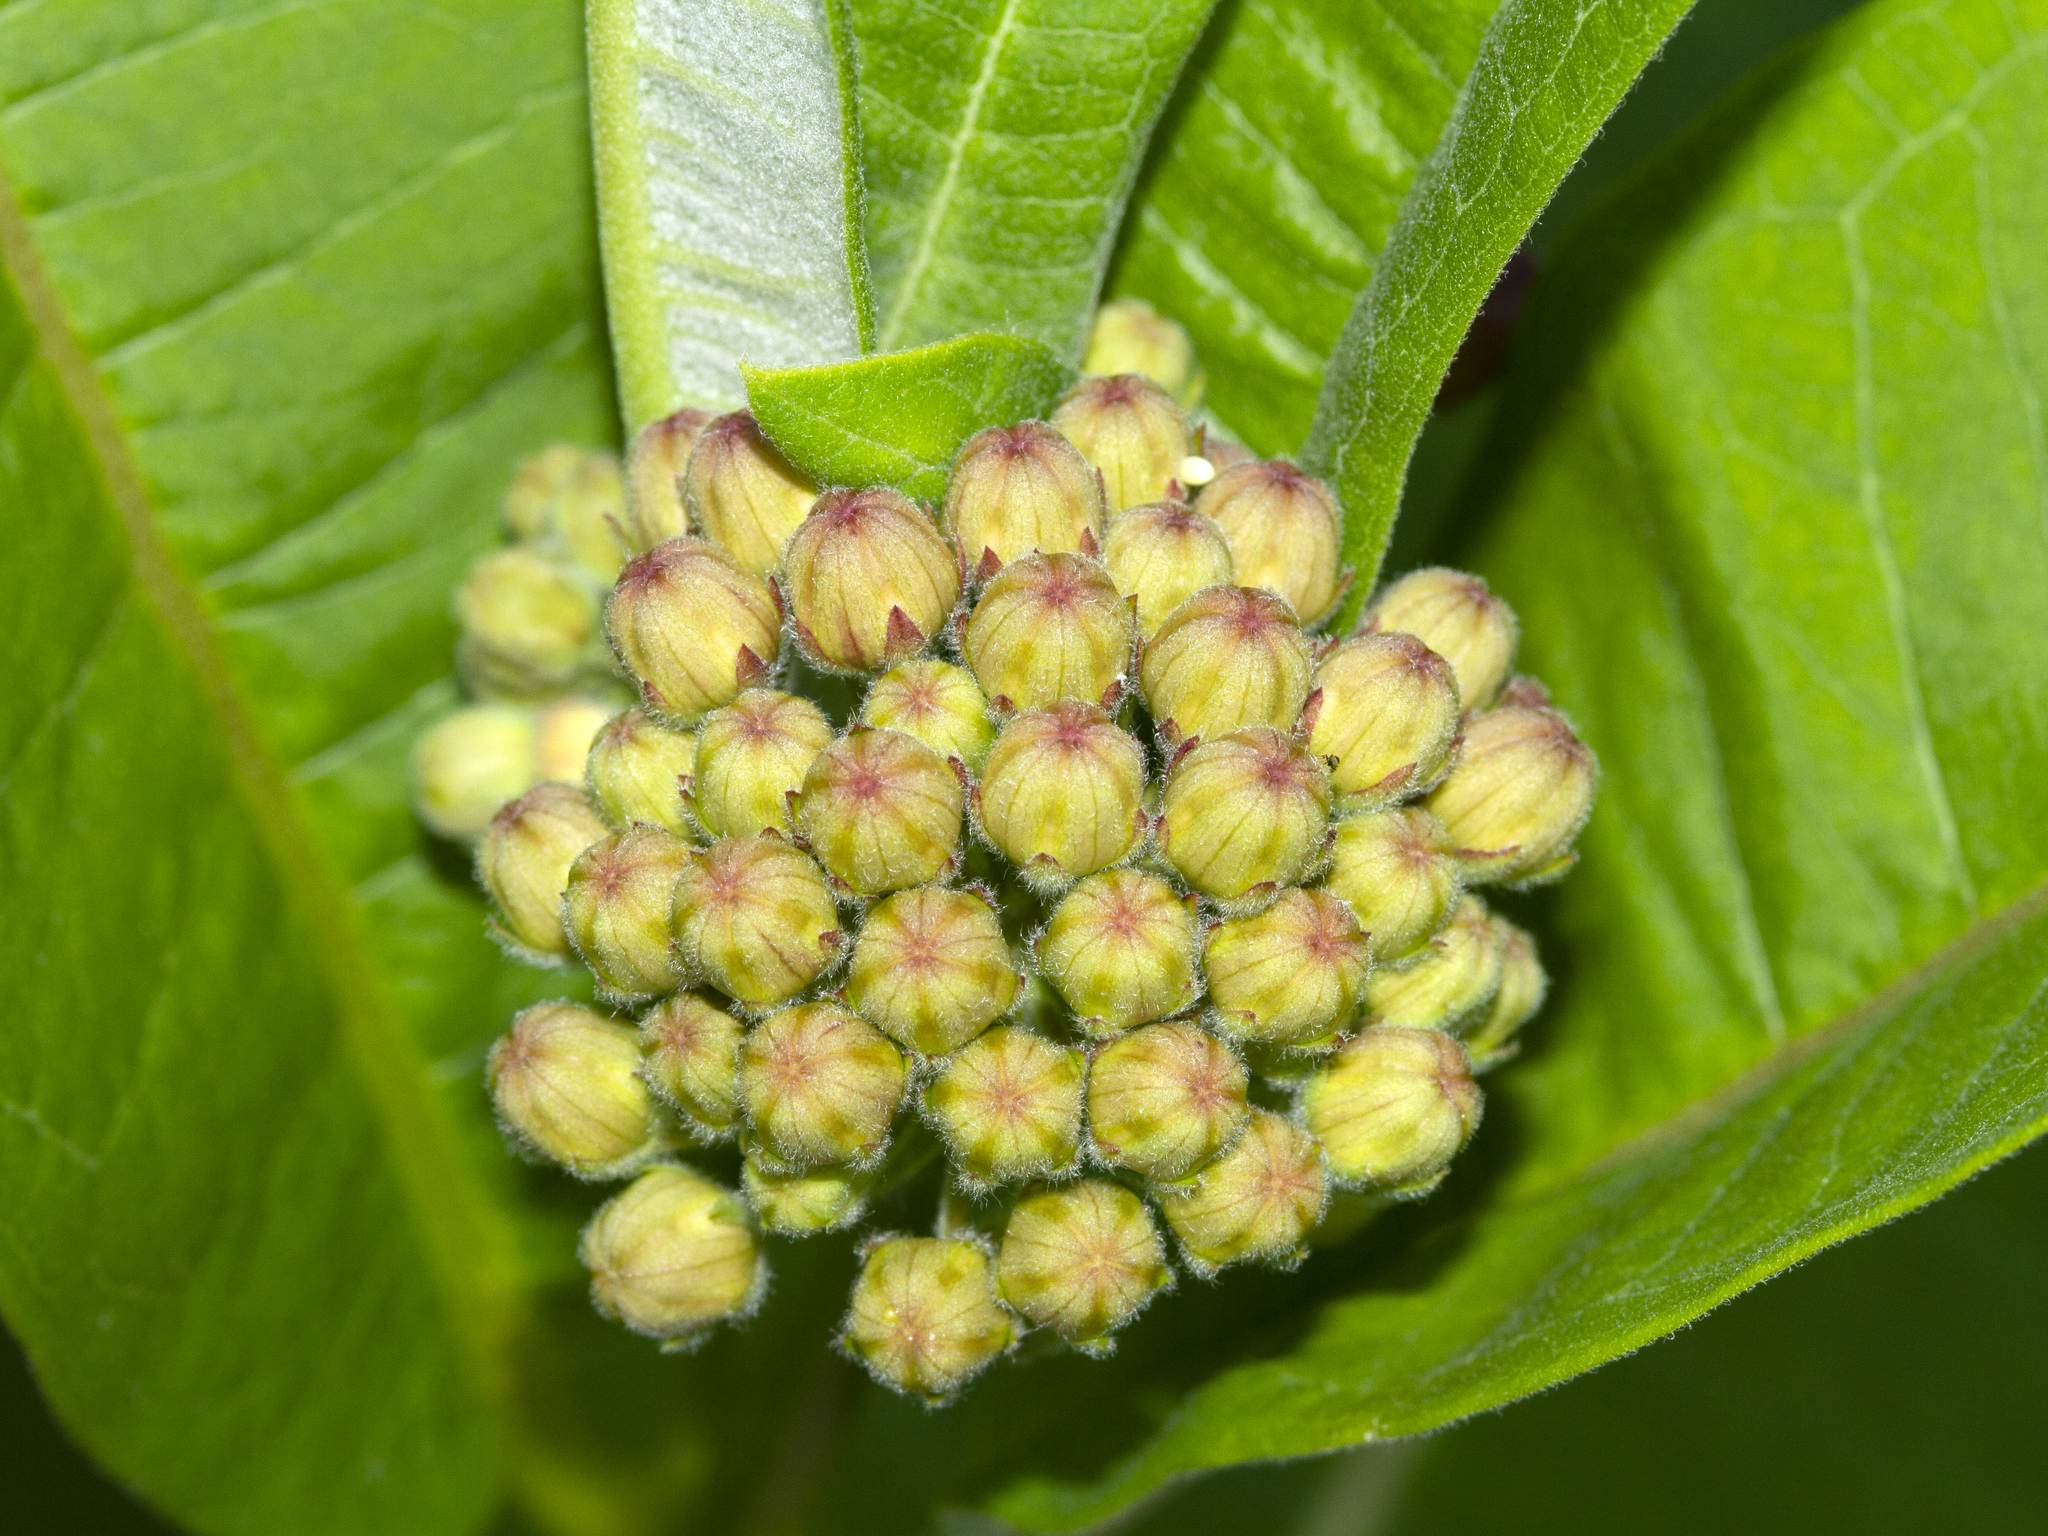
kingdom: Plantae
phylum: Tracheophyta
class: Magnoliopsida
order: Gentianales
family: Apocynaceae
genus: Asclepias
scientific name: Asclepias syriaca
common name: Common milkweed
